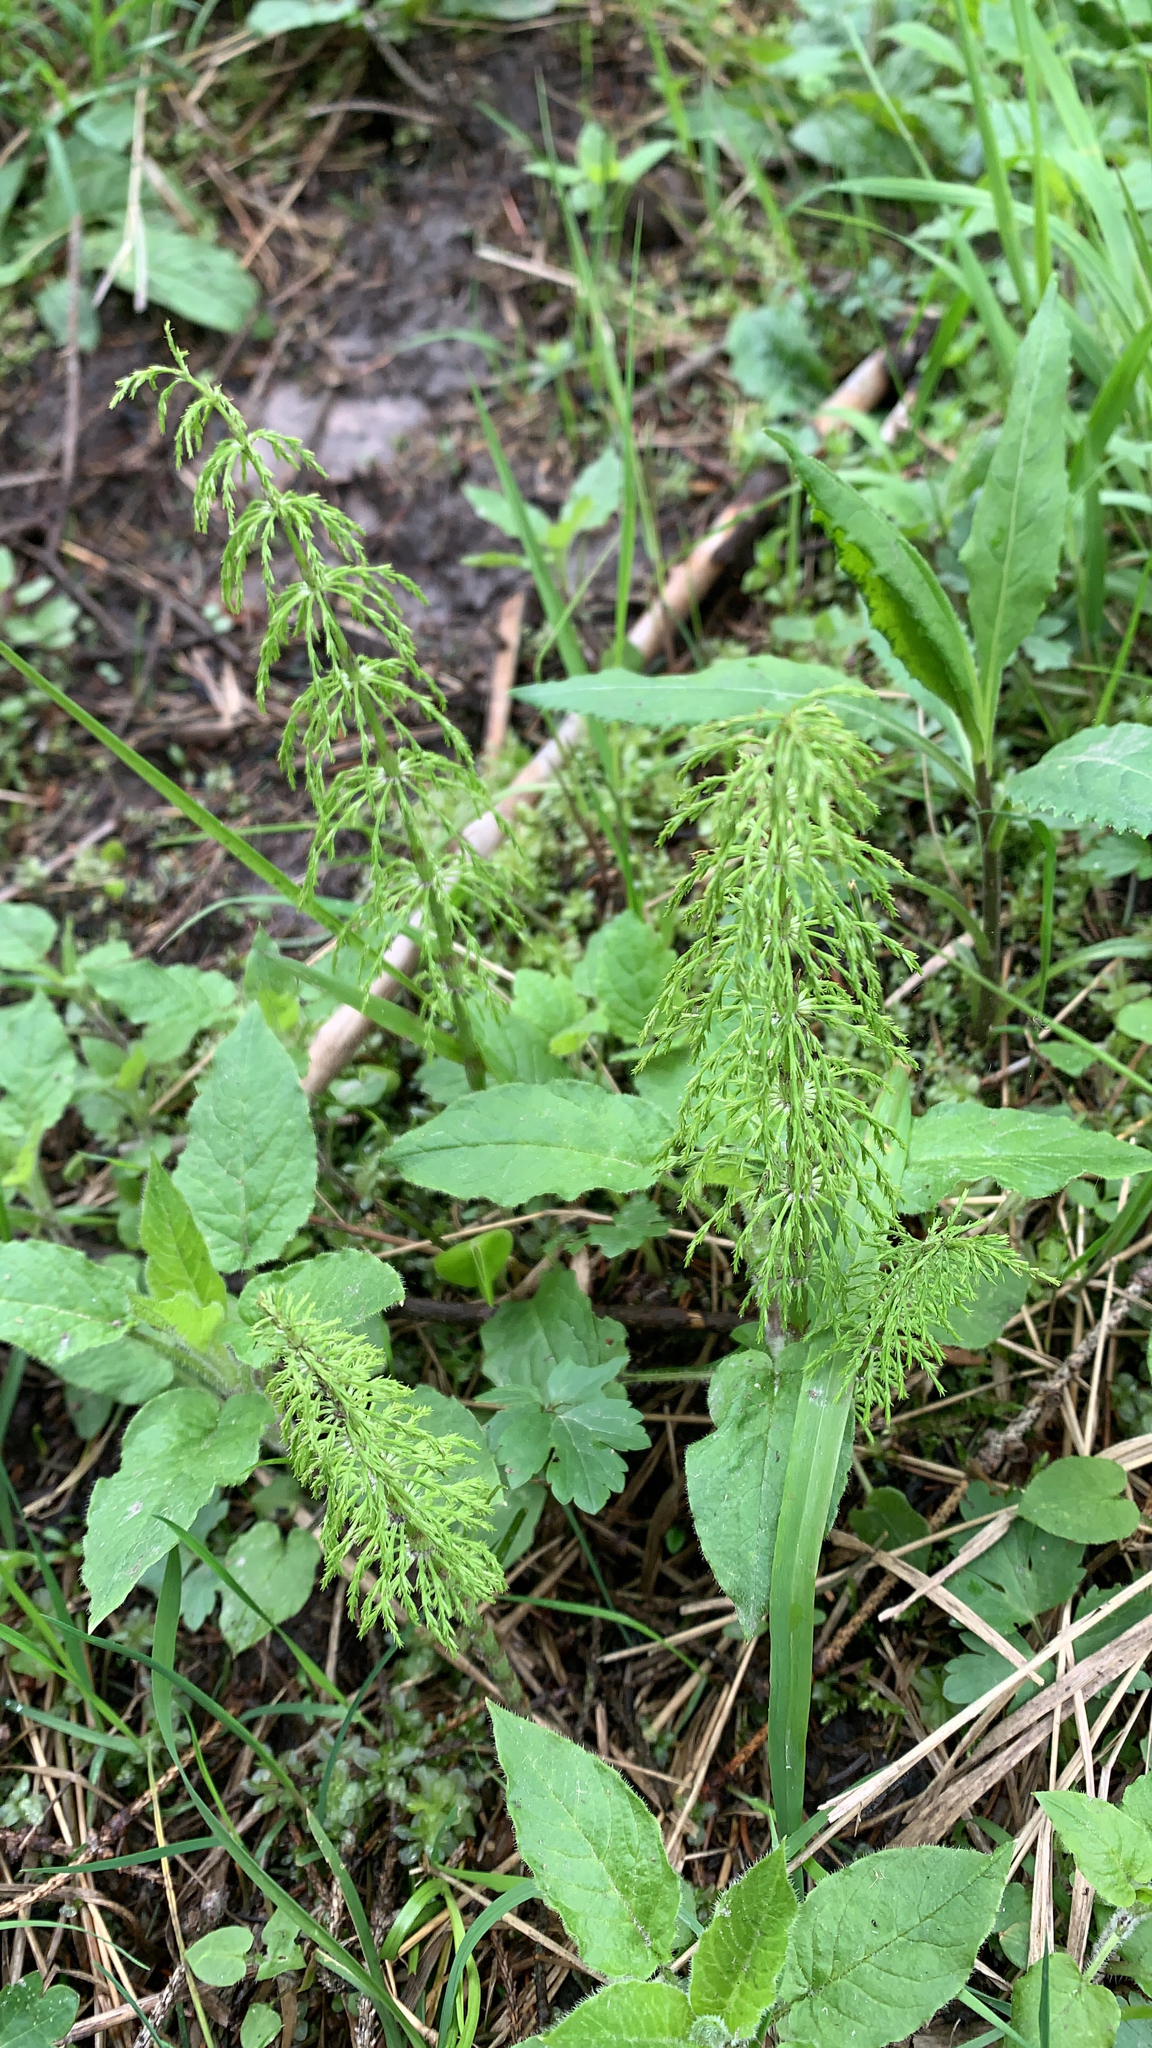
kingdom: Plantae
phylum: Tracheophyta
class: Polypodiopsida
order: Equisetales
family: Equisetaceae
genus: Equisetum
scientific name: Equisetum sylvaticum
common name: Wood horsetail
